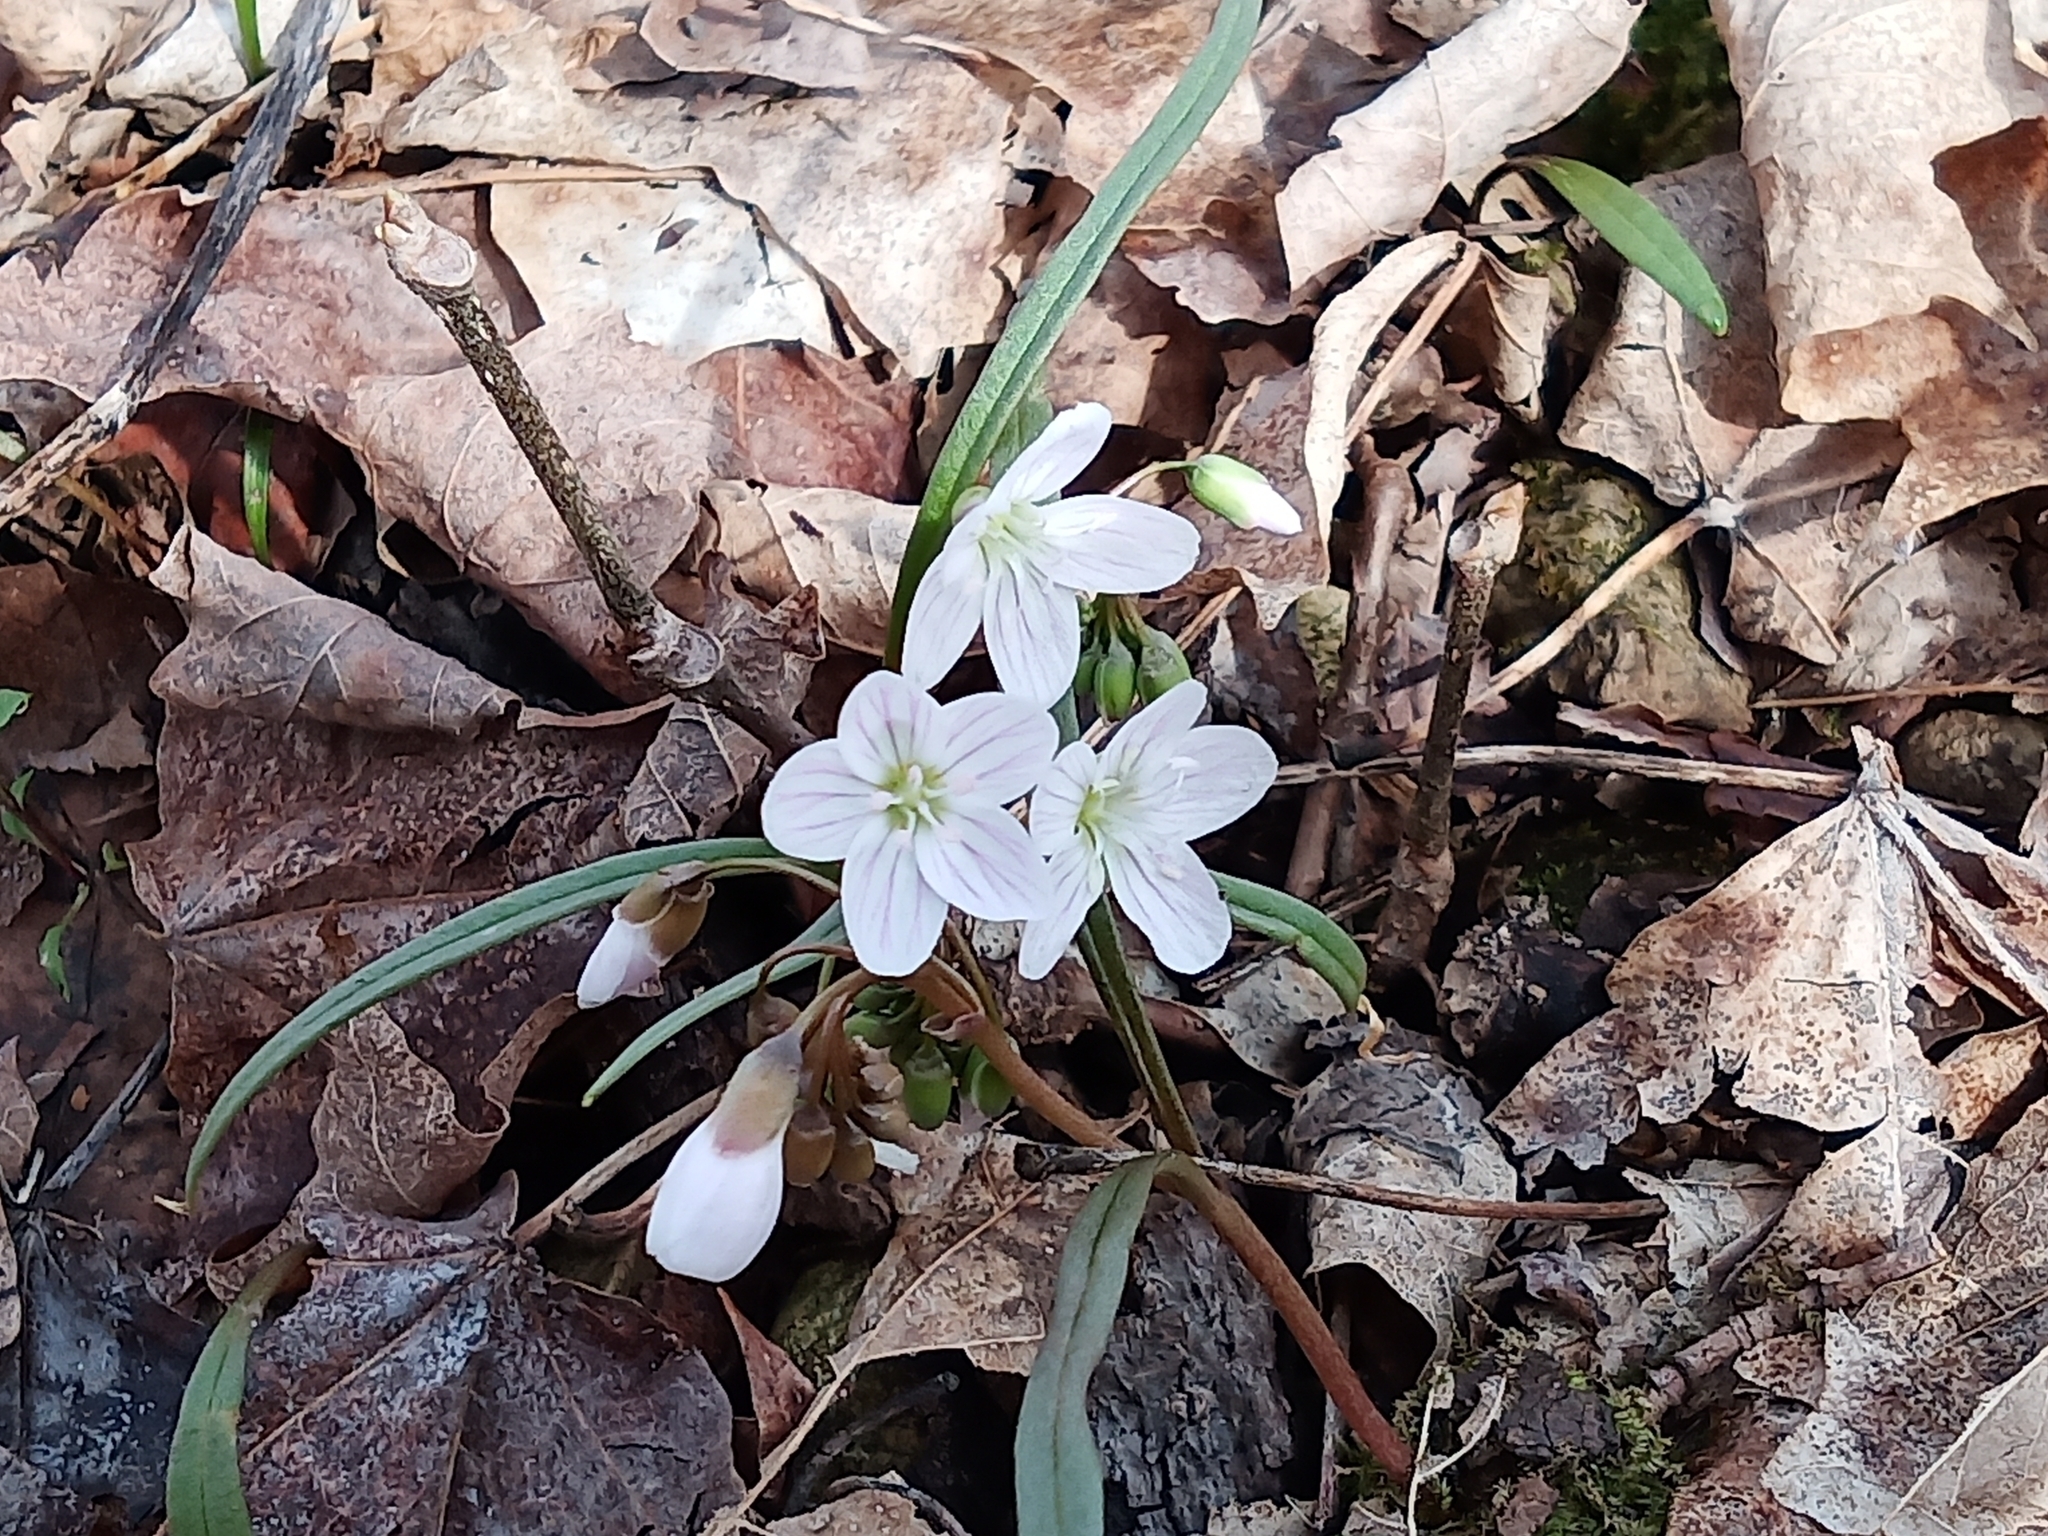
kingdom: Plantae
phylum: Tracheophyta
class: Magnoliopsida
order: Caryophyllales
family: Montiaceae
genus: Claytonia
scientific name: Claytonia virginica
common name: Virginia springbeauty
